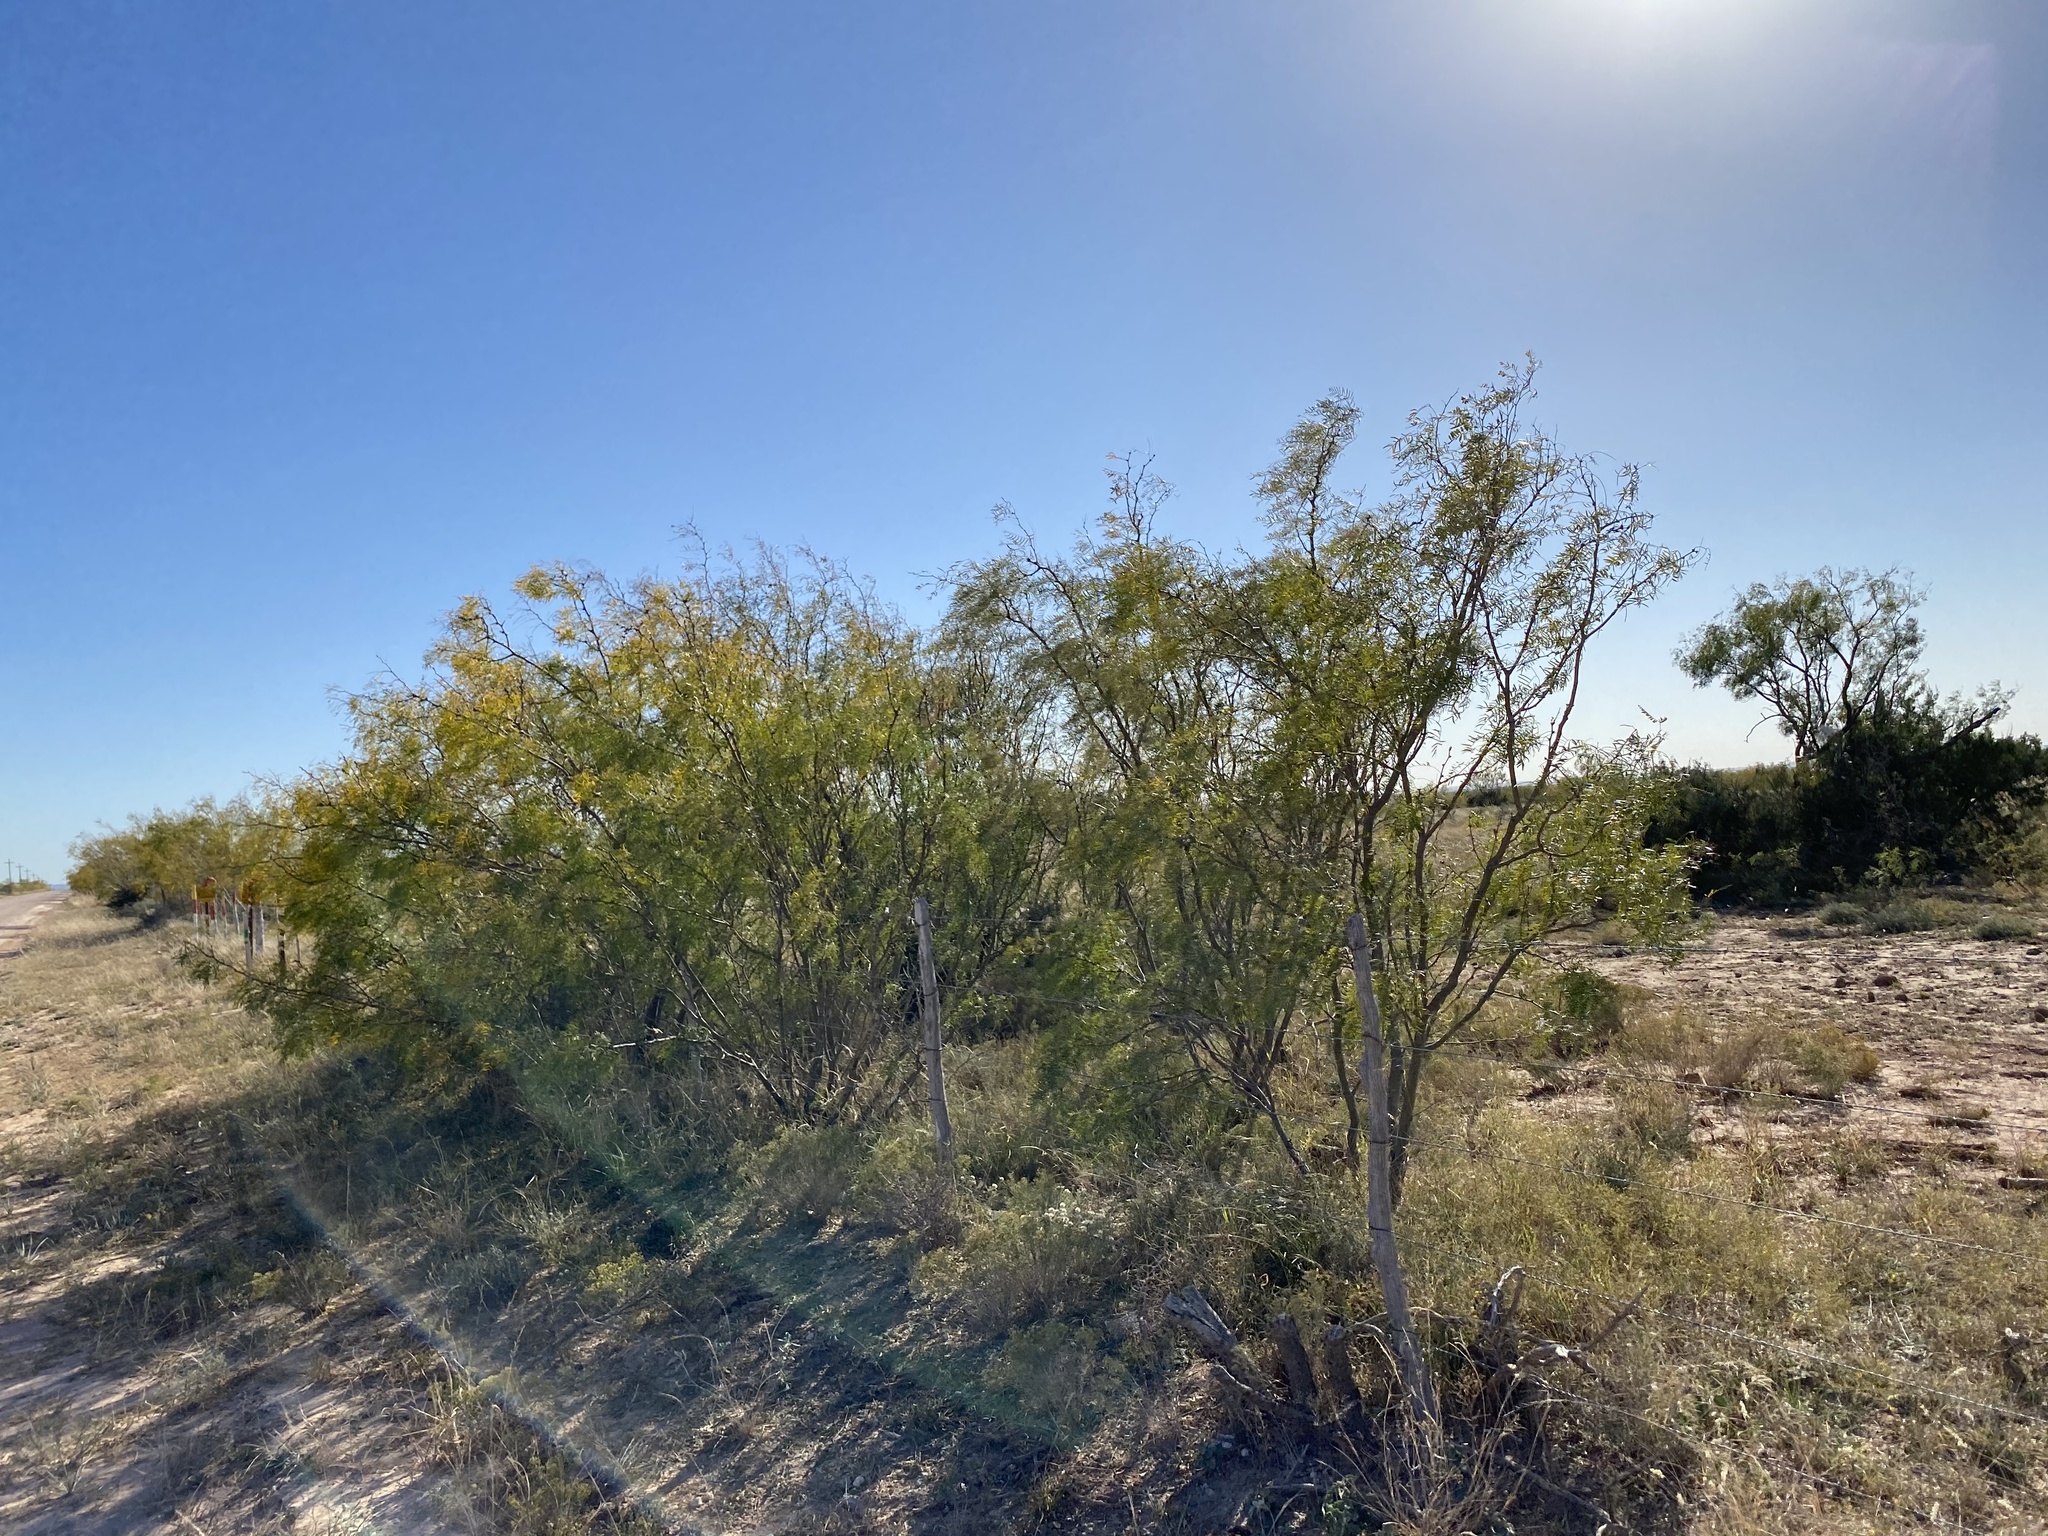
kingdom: Plantae
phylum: Tracheophyta
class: Magnoliopsida
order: Fabales
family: Fabaceae
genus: Prosopis
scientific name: Prosopis glandulosa
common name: Honey mesquite
